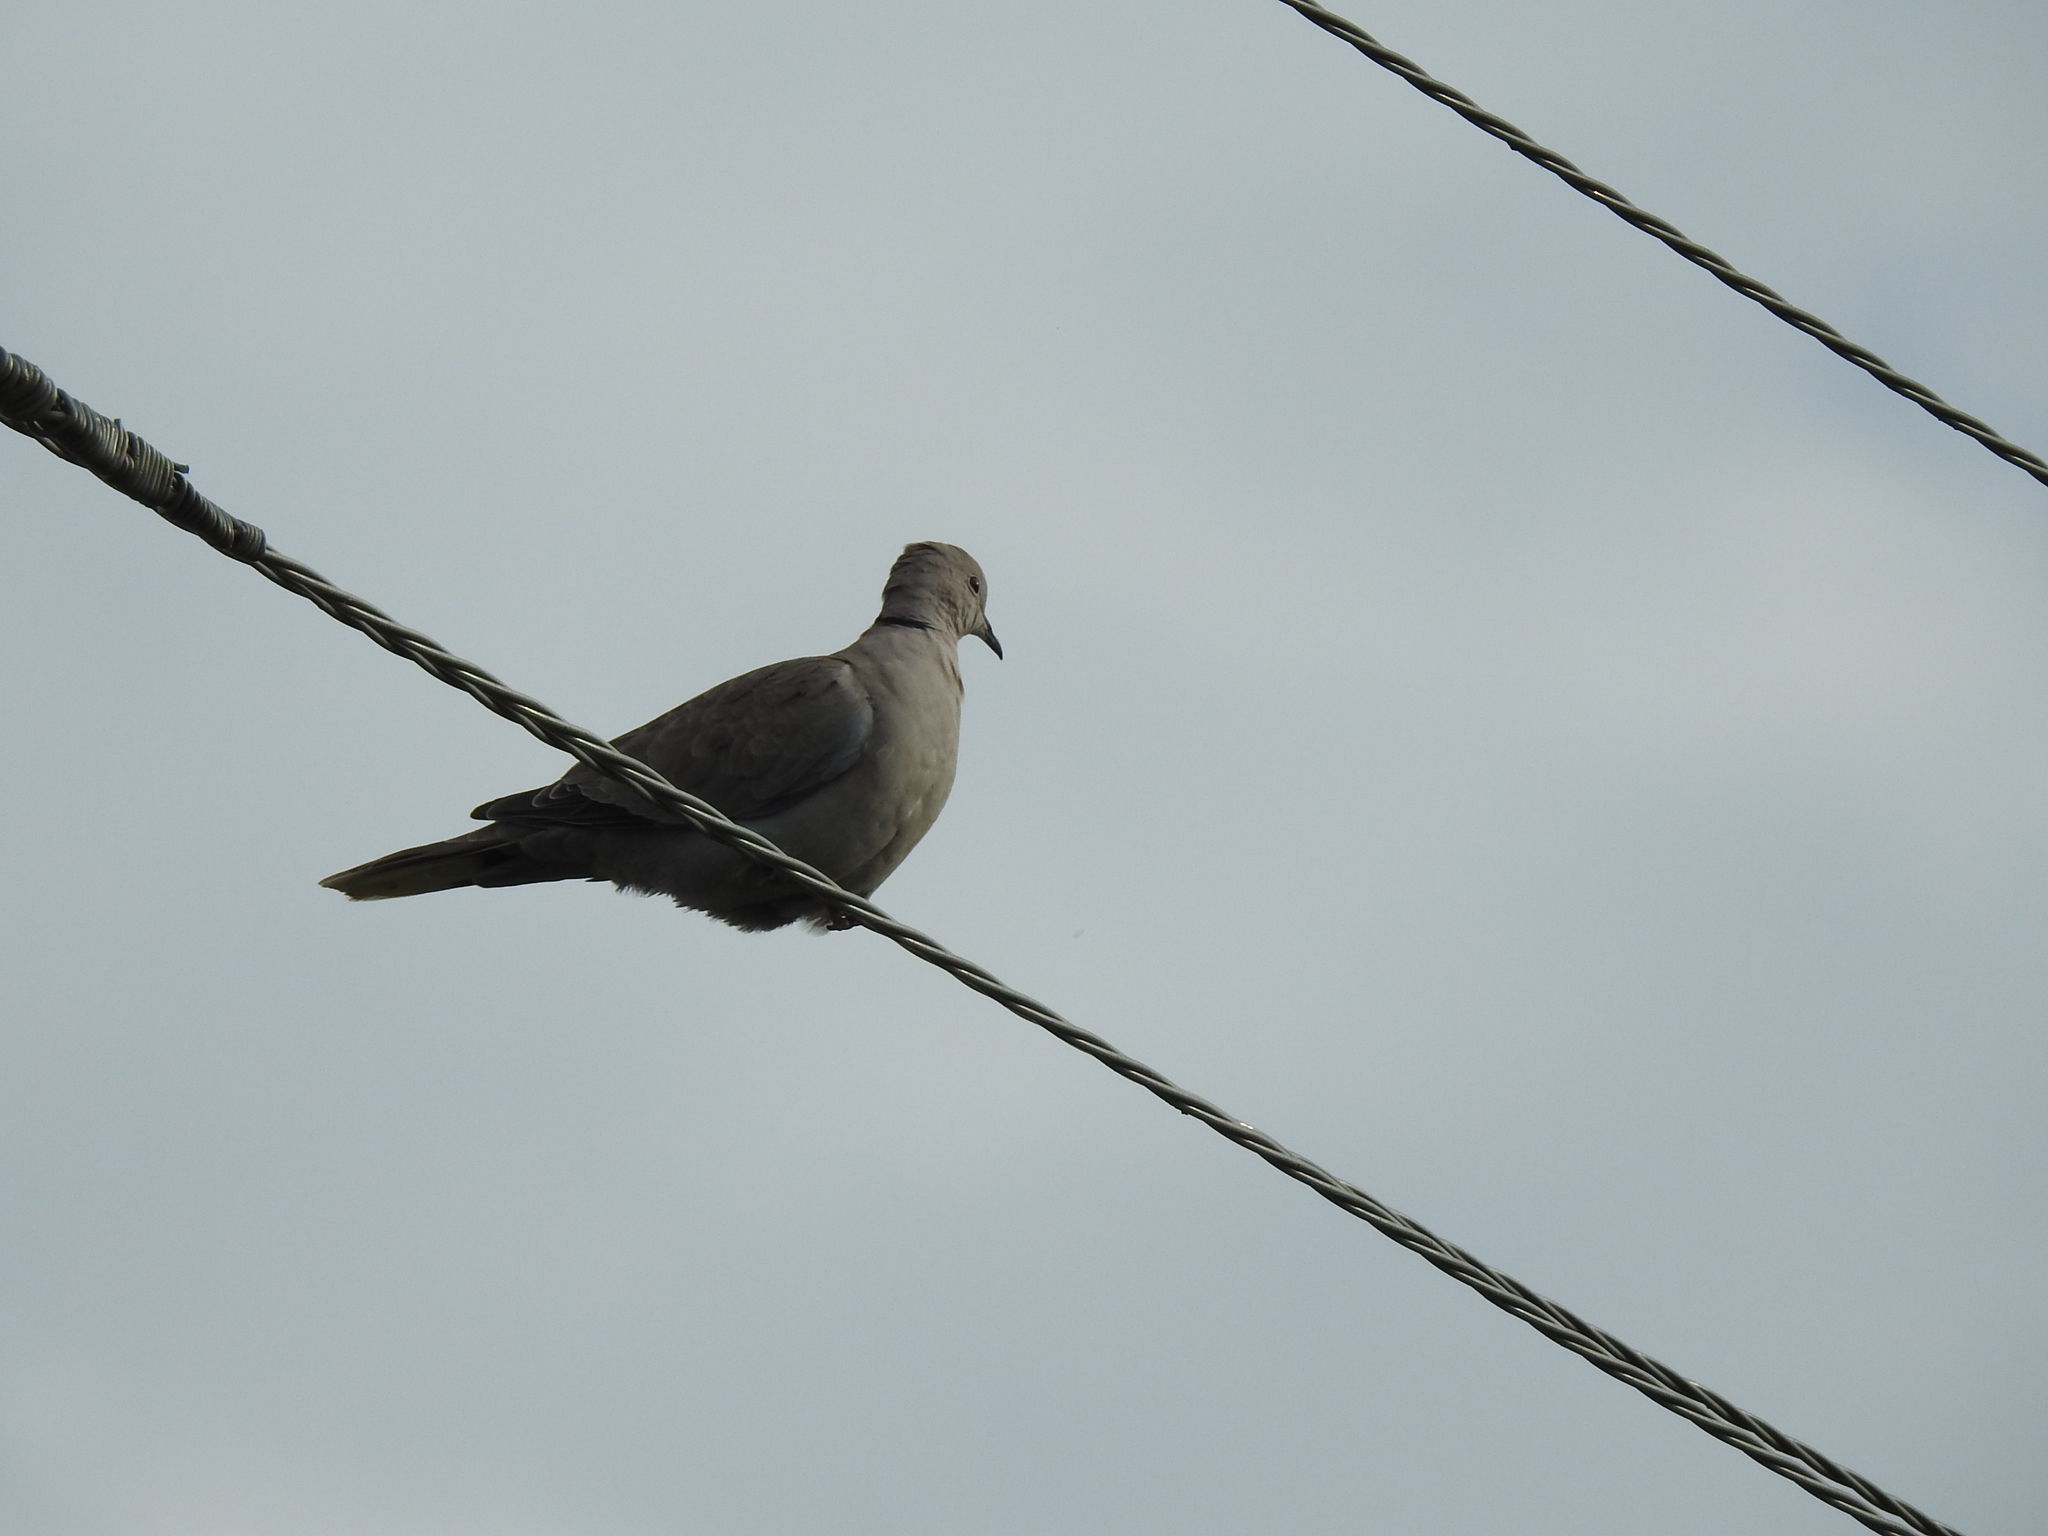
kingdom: Animalia
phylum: Chordata
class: Aves
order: Columbiformes
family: Columbidae
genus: Streptopelia
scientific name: Streptopelia decaocto
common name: Eurasian collared dove
